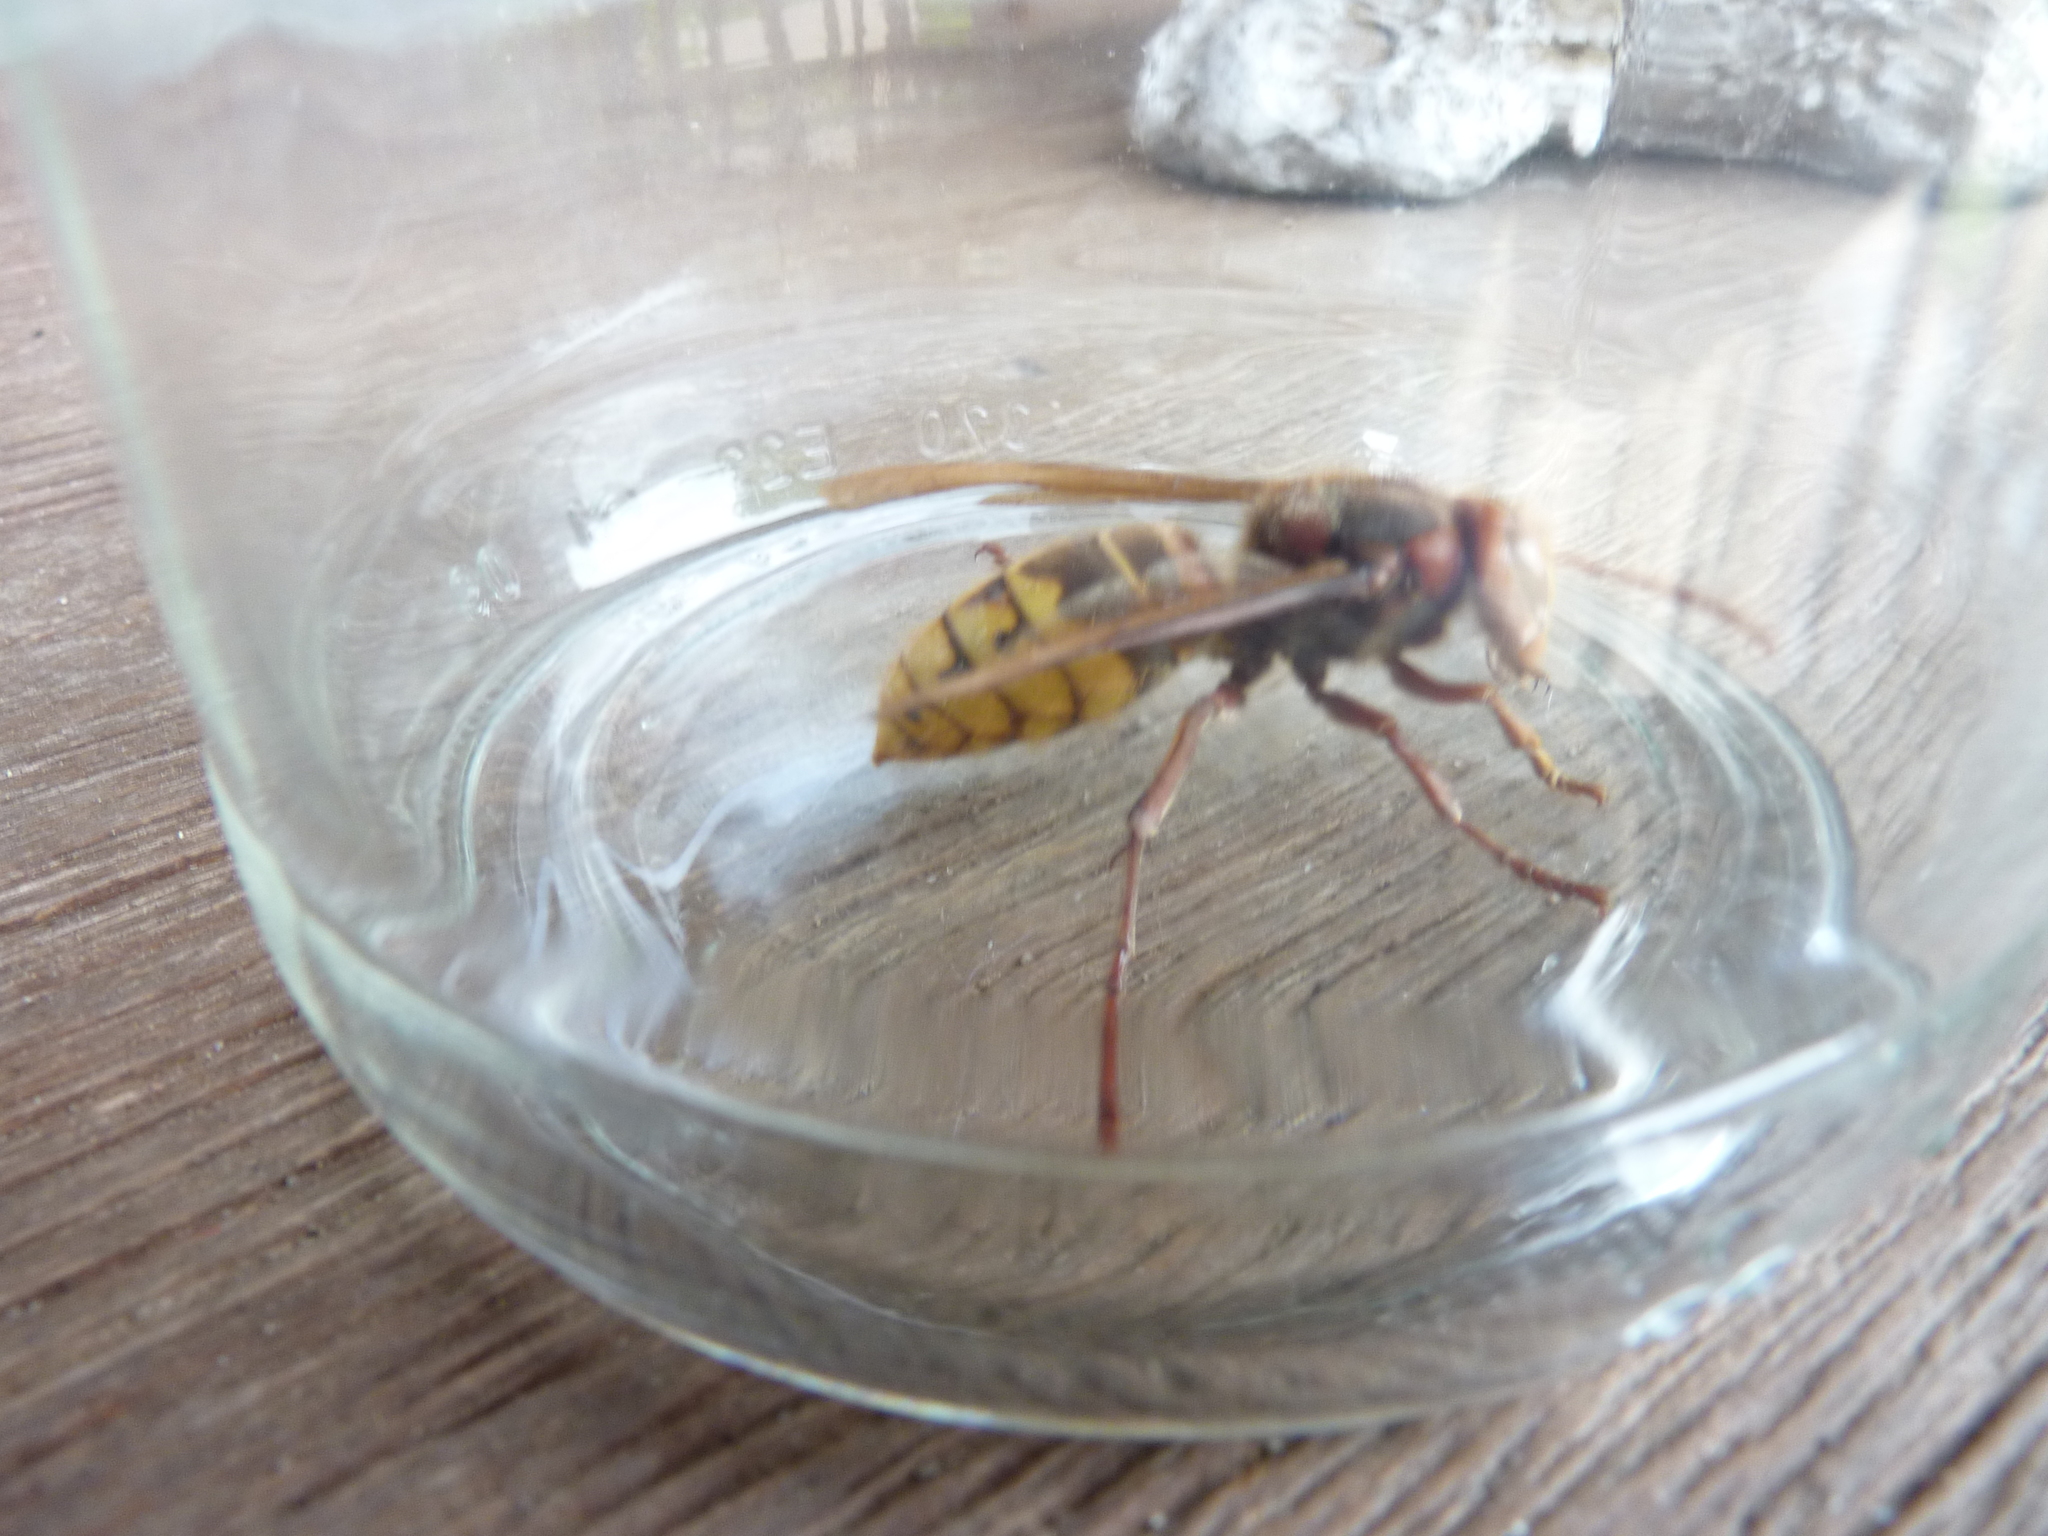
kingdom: Animalia
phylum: Arthropoda
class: Insecta
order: Hymenoptera
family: Vespidae
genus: Vespa
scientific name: Vespa crabro
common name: Hornet
